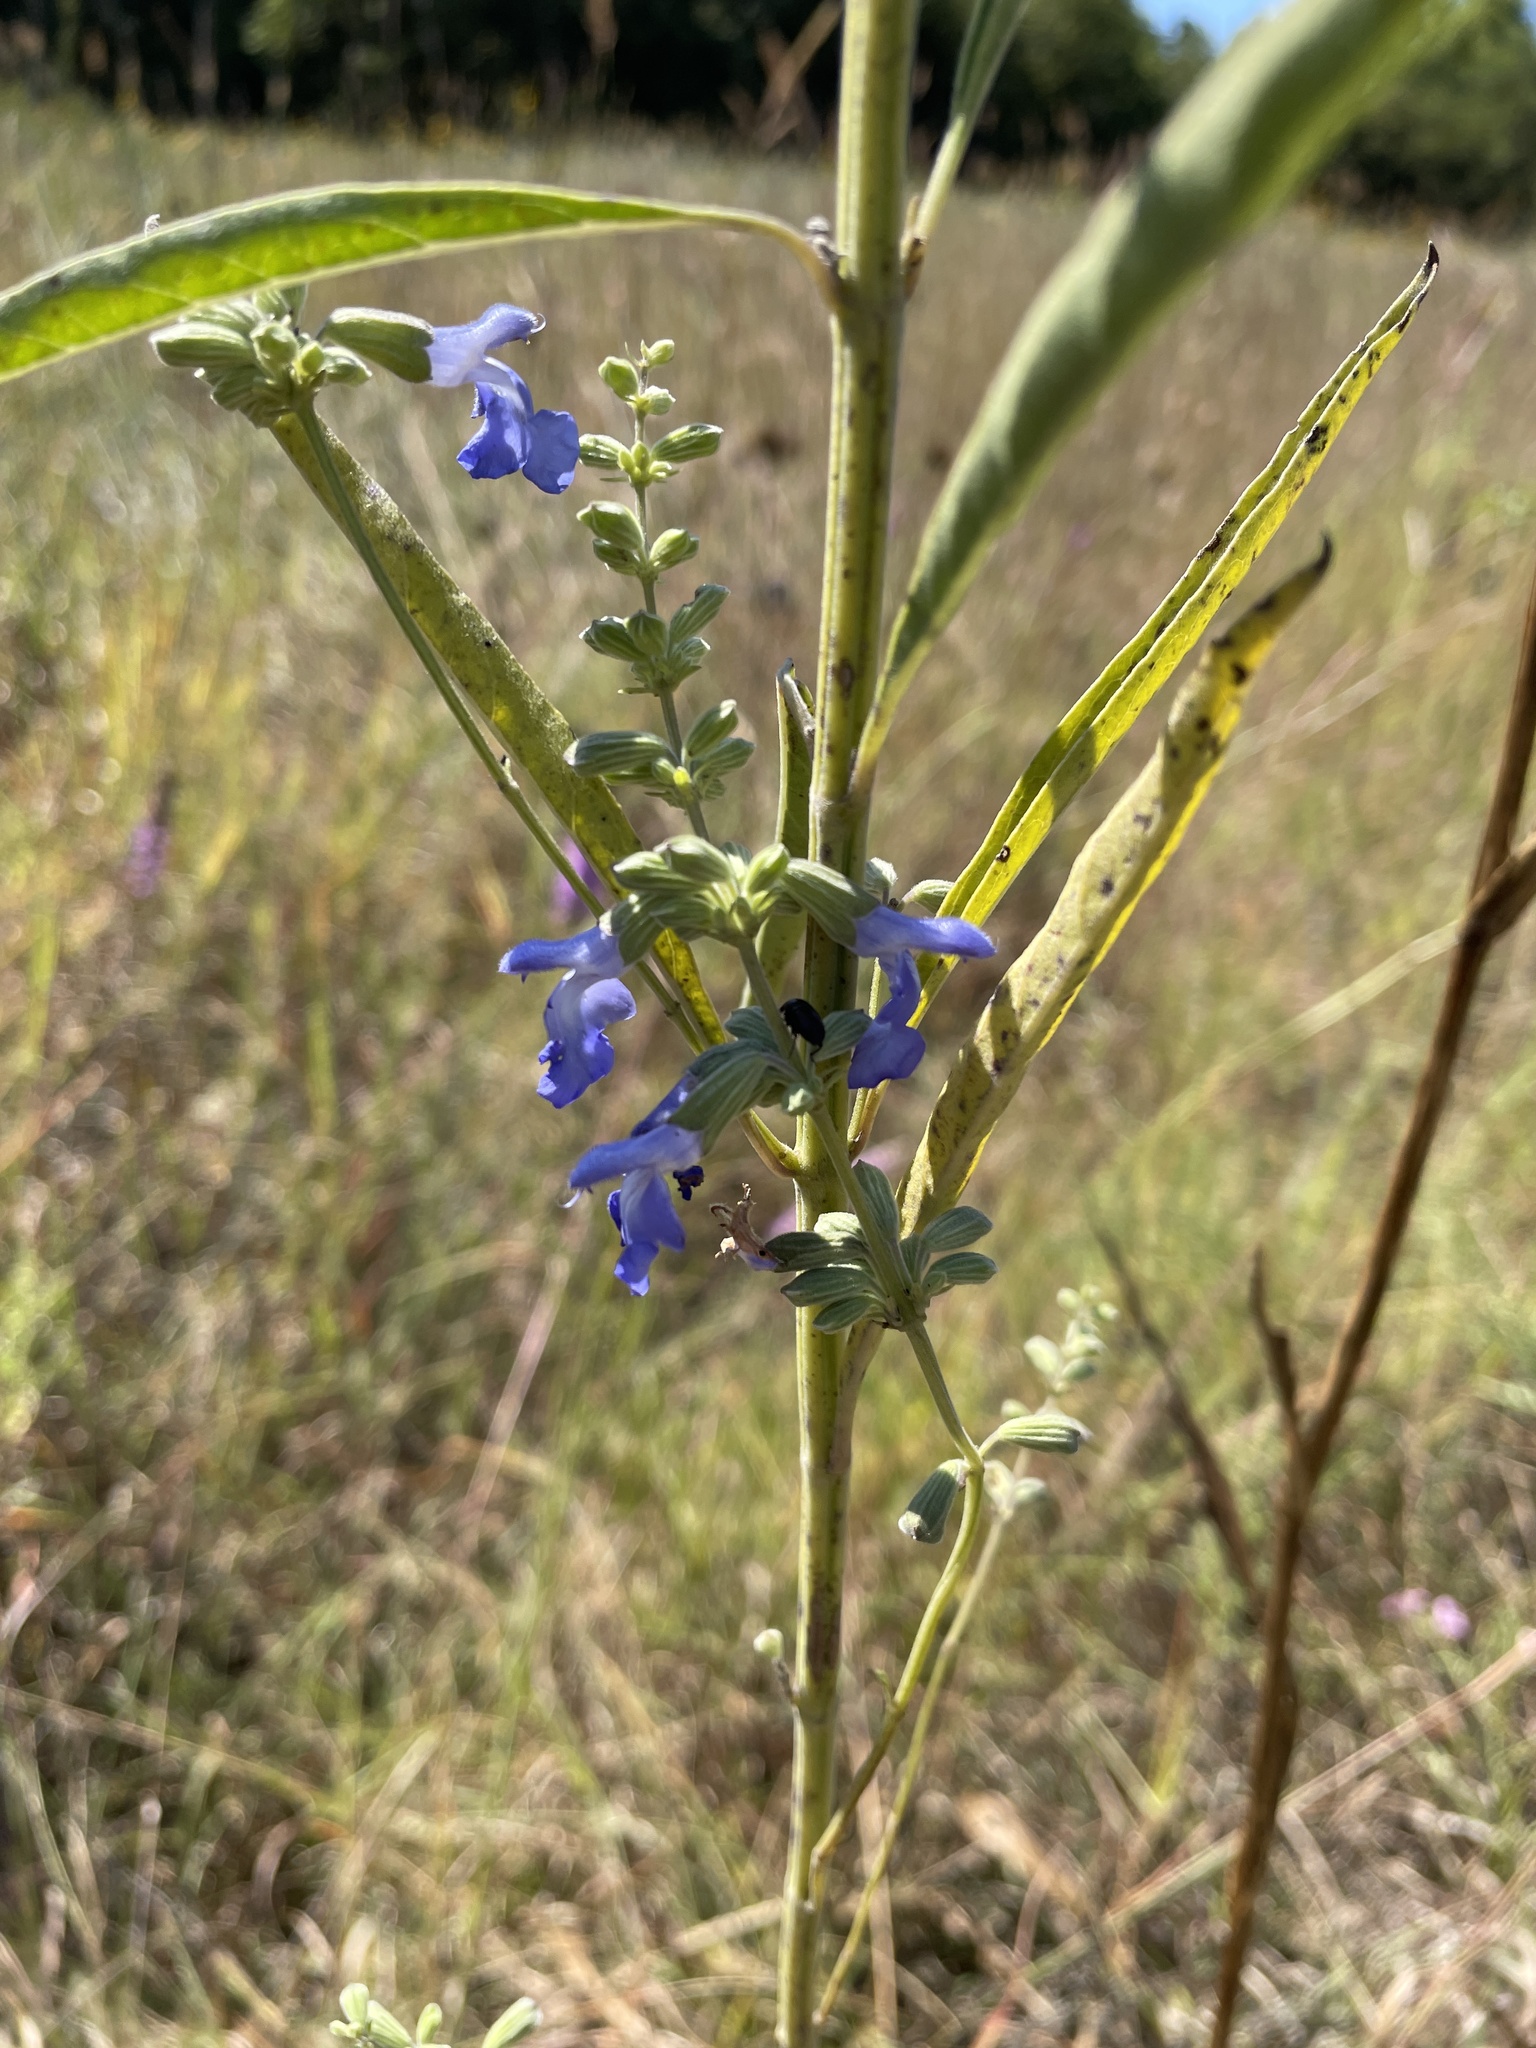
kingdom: Plantae
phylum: Tracheophyta
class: Magnoliopsida
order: Lamiales
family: Lamiaceae
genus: Salvia
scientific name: Salvia azurea
